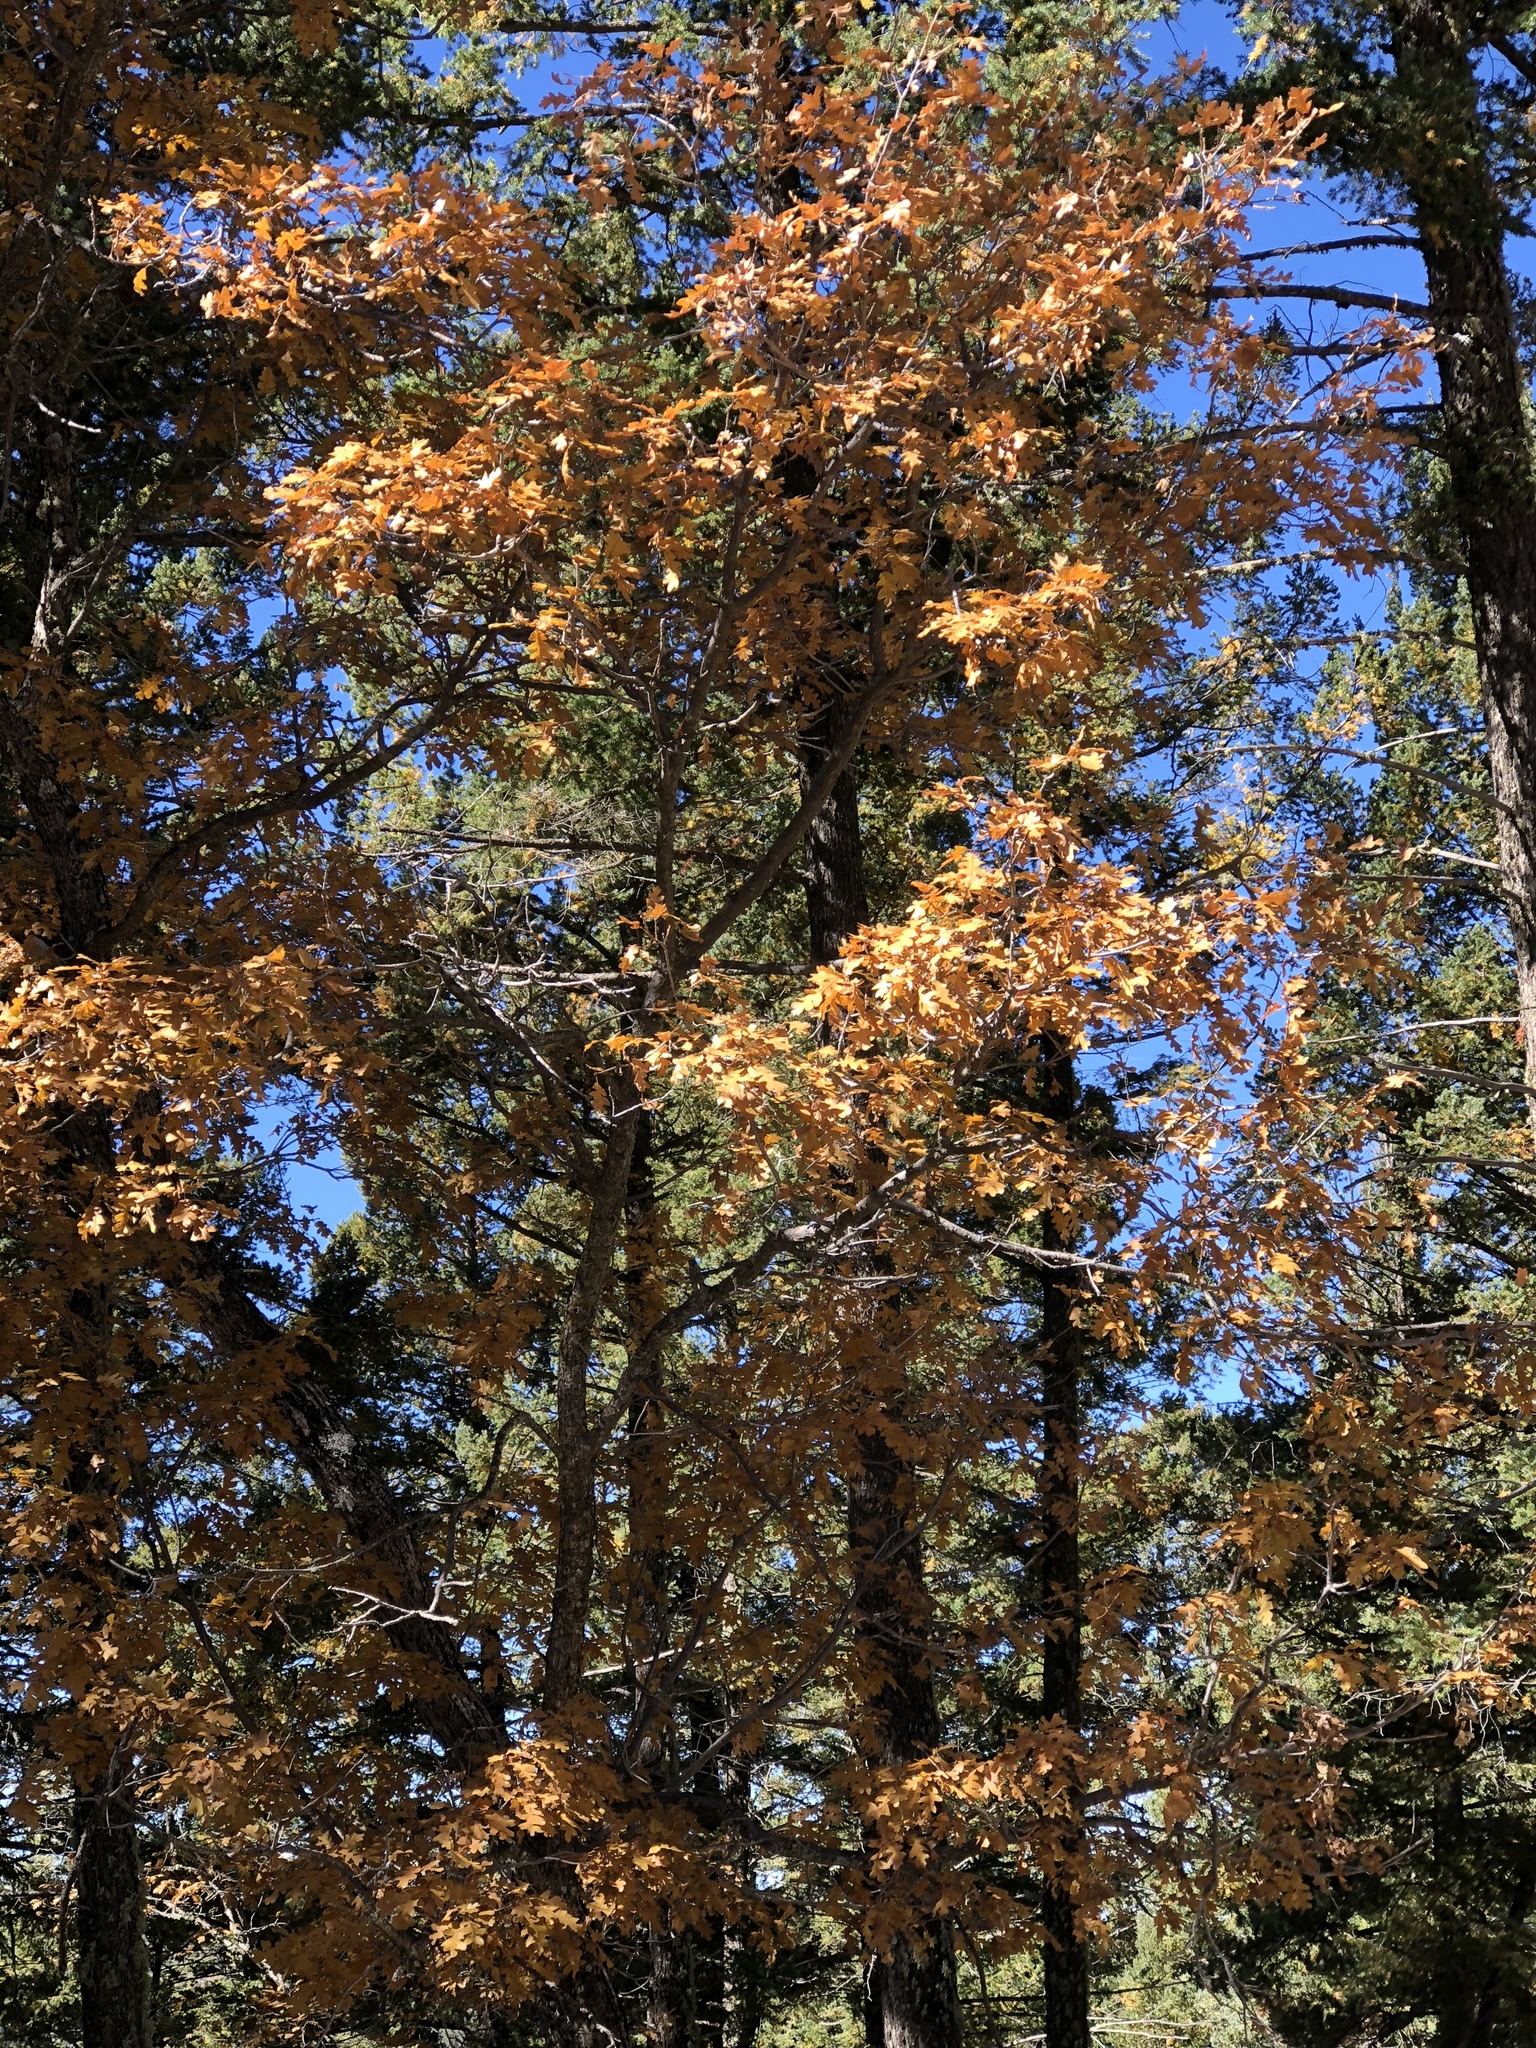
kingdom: Plantae
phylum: Tracheophyta
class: Magnoliopsida
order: Fagales
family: Fagaceae
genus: Quercus
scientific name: Quercus gambelii
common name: Gambel oak
